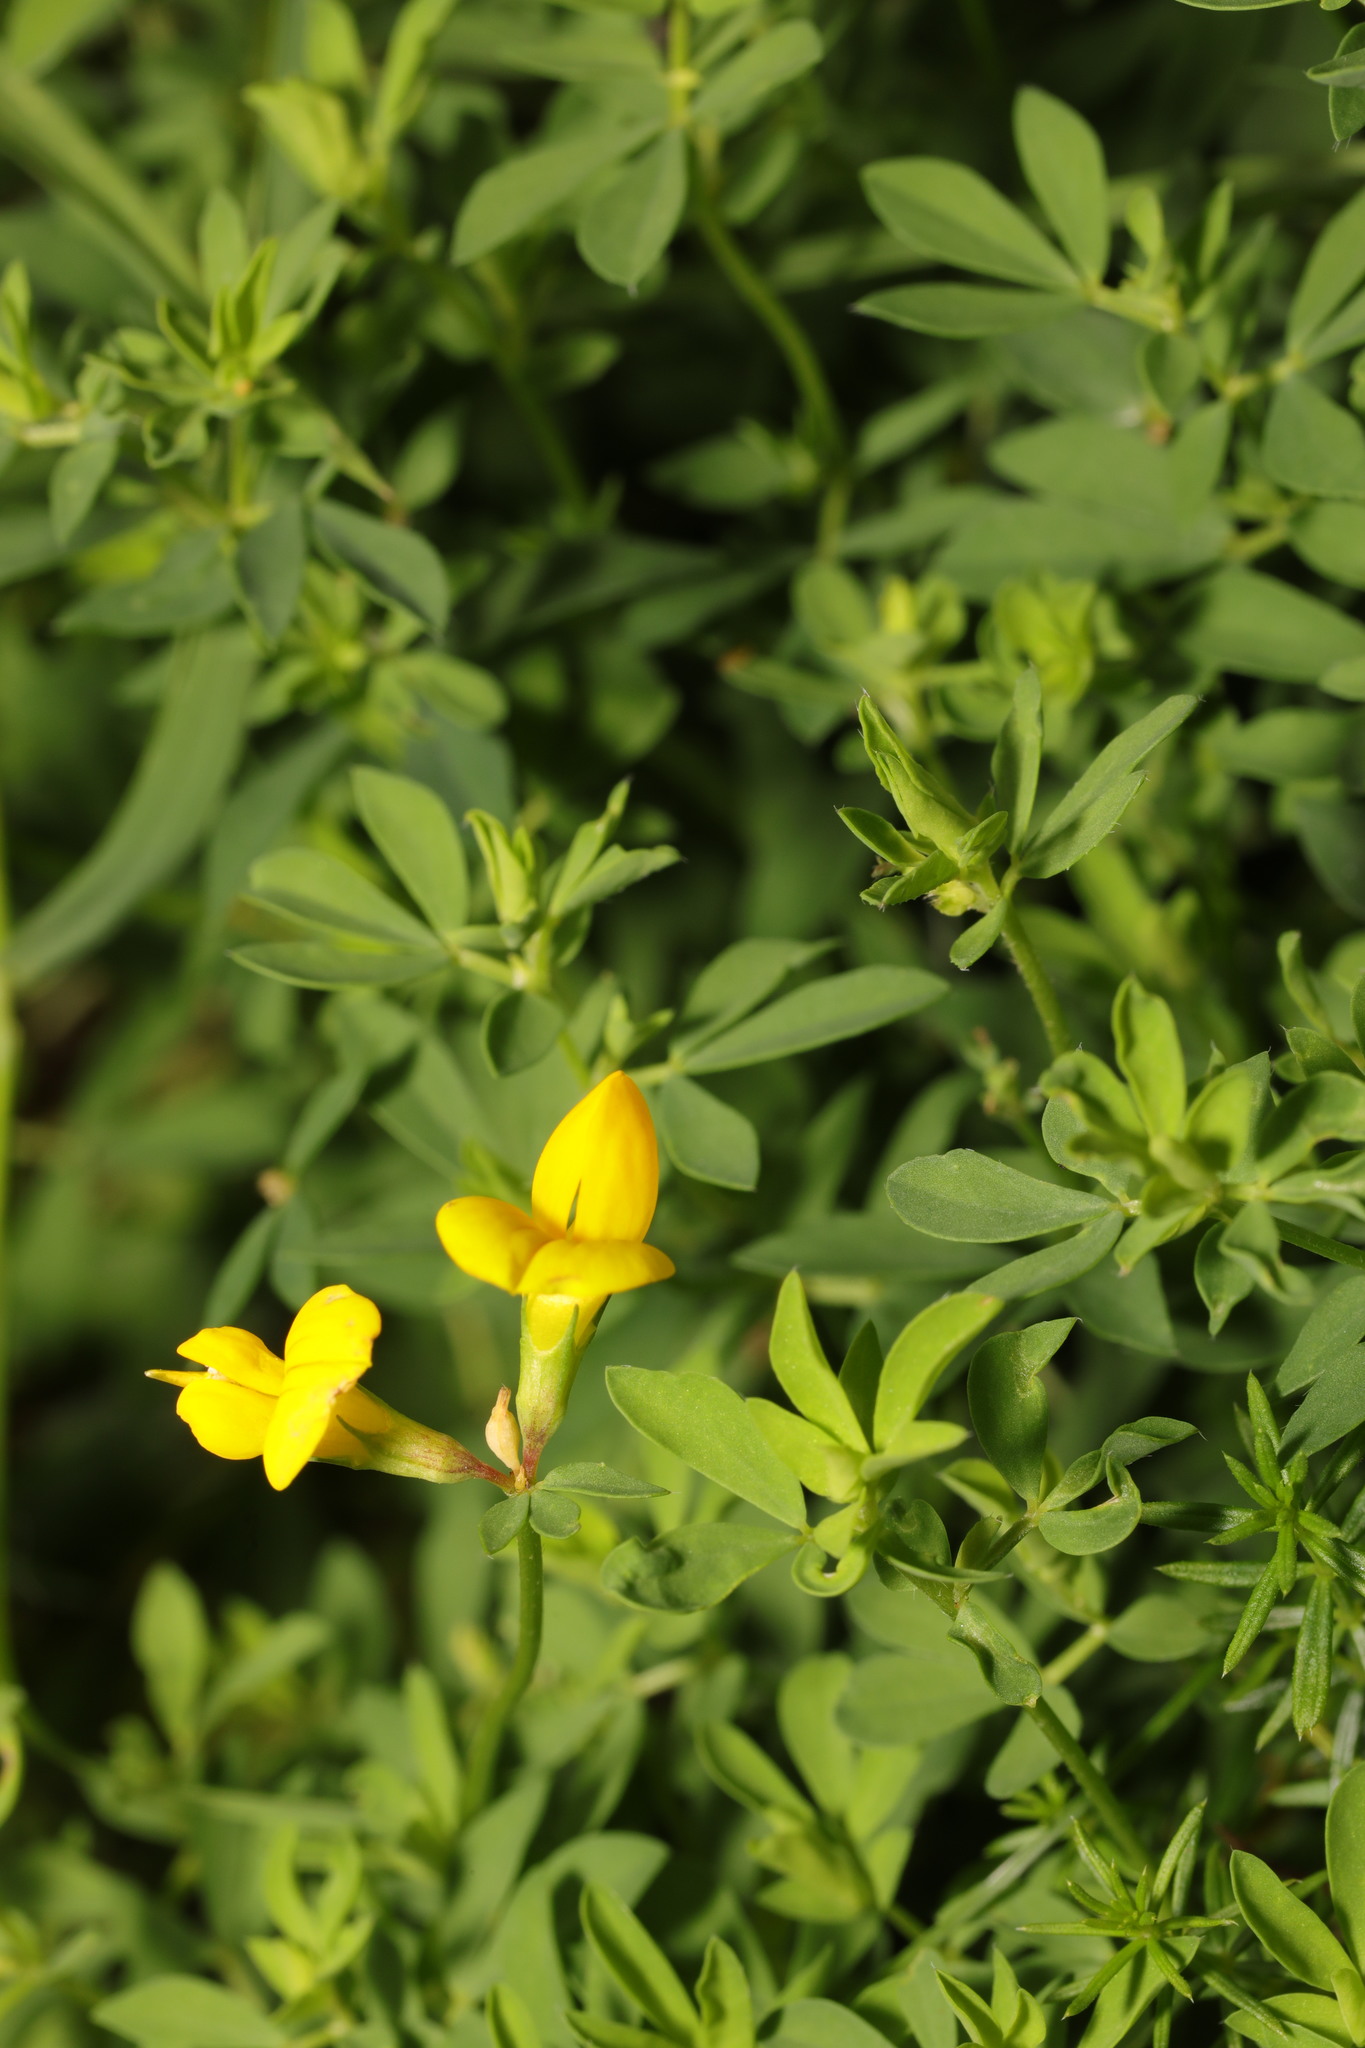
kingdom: Plantae
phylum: Tracheophyta
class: Magnoliopsida
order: Fabales
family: Fabaceae
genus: Lotus
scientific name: Lotus corniculatus
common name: Common bird's-foot-trefoil
